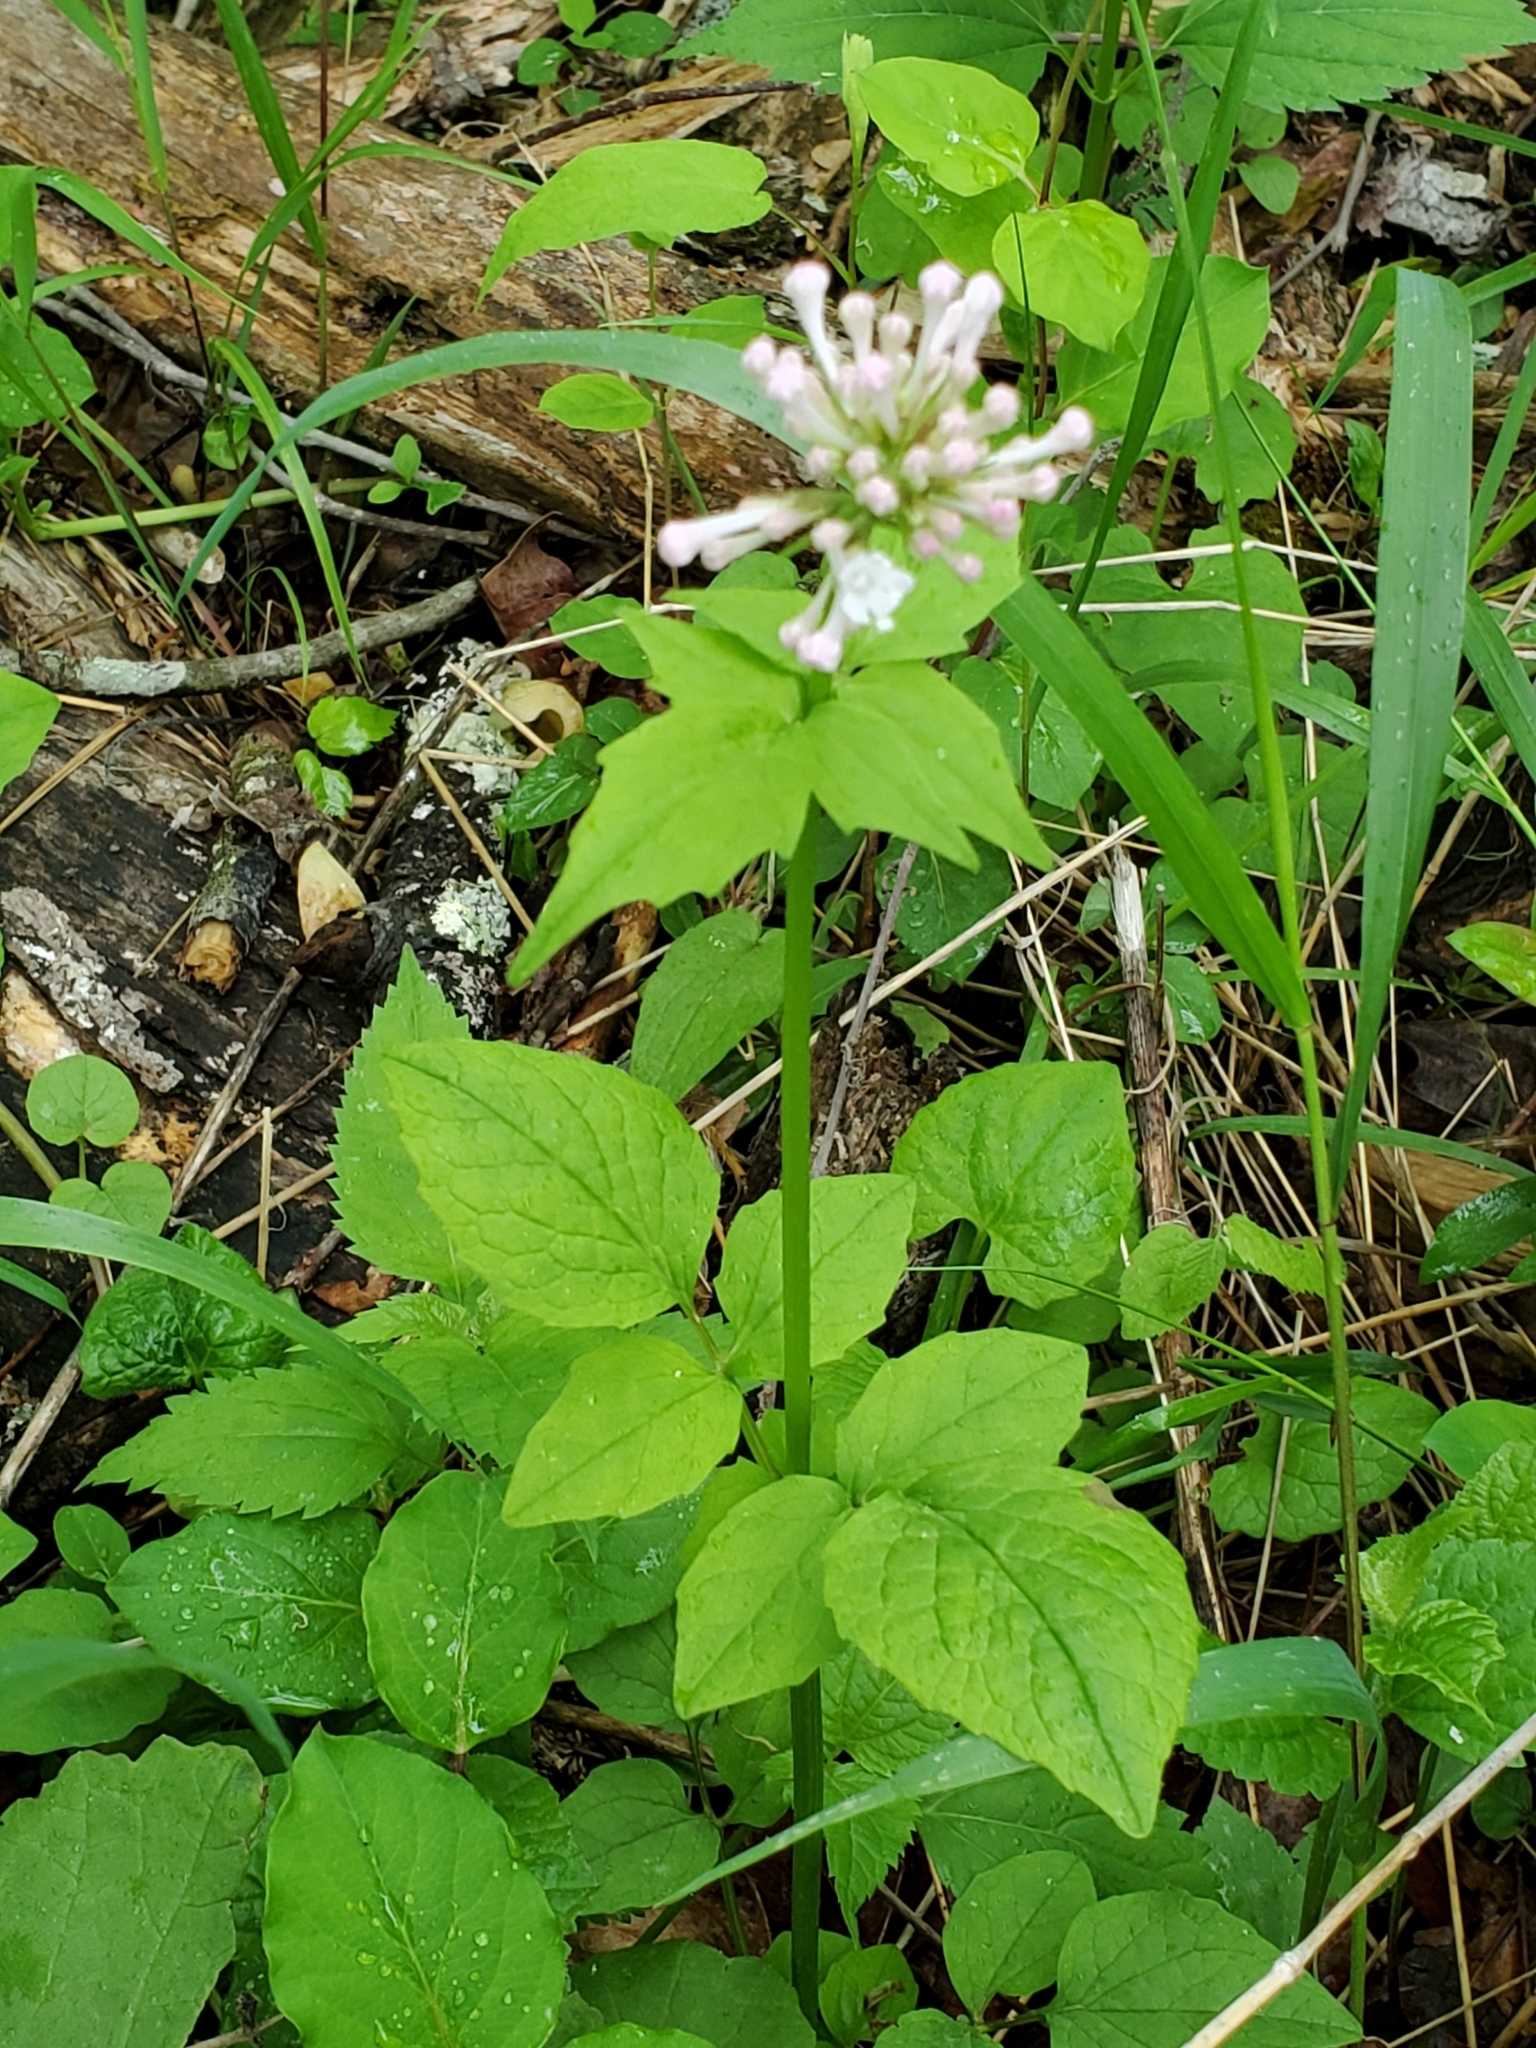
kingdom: Plantae
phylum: Tracheophyta
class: Magnoliopsida
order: Dipsacales
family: Caprifoliaceae
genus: Valeriana
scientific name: Valeriana pauciflora
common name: Long-tube valeriana
